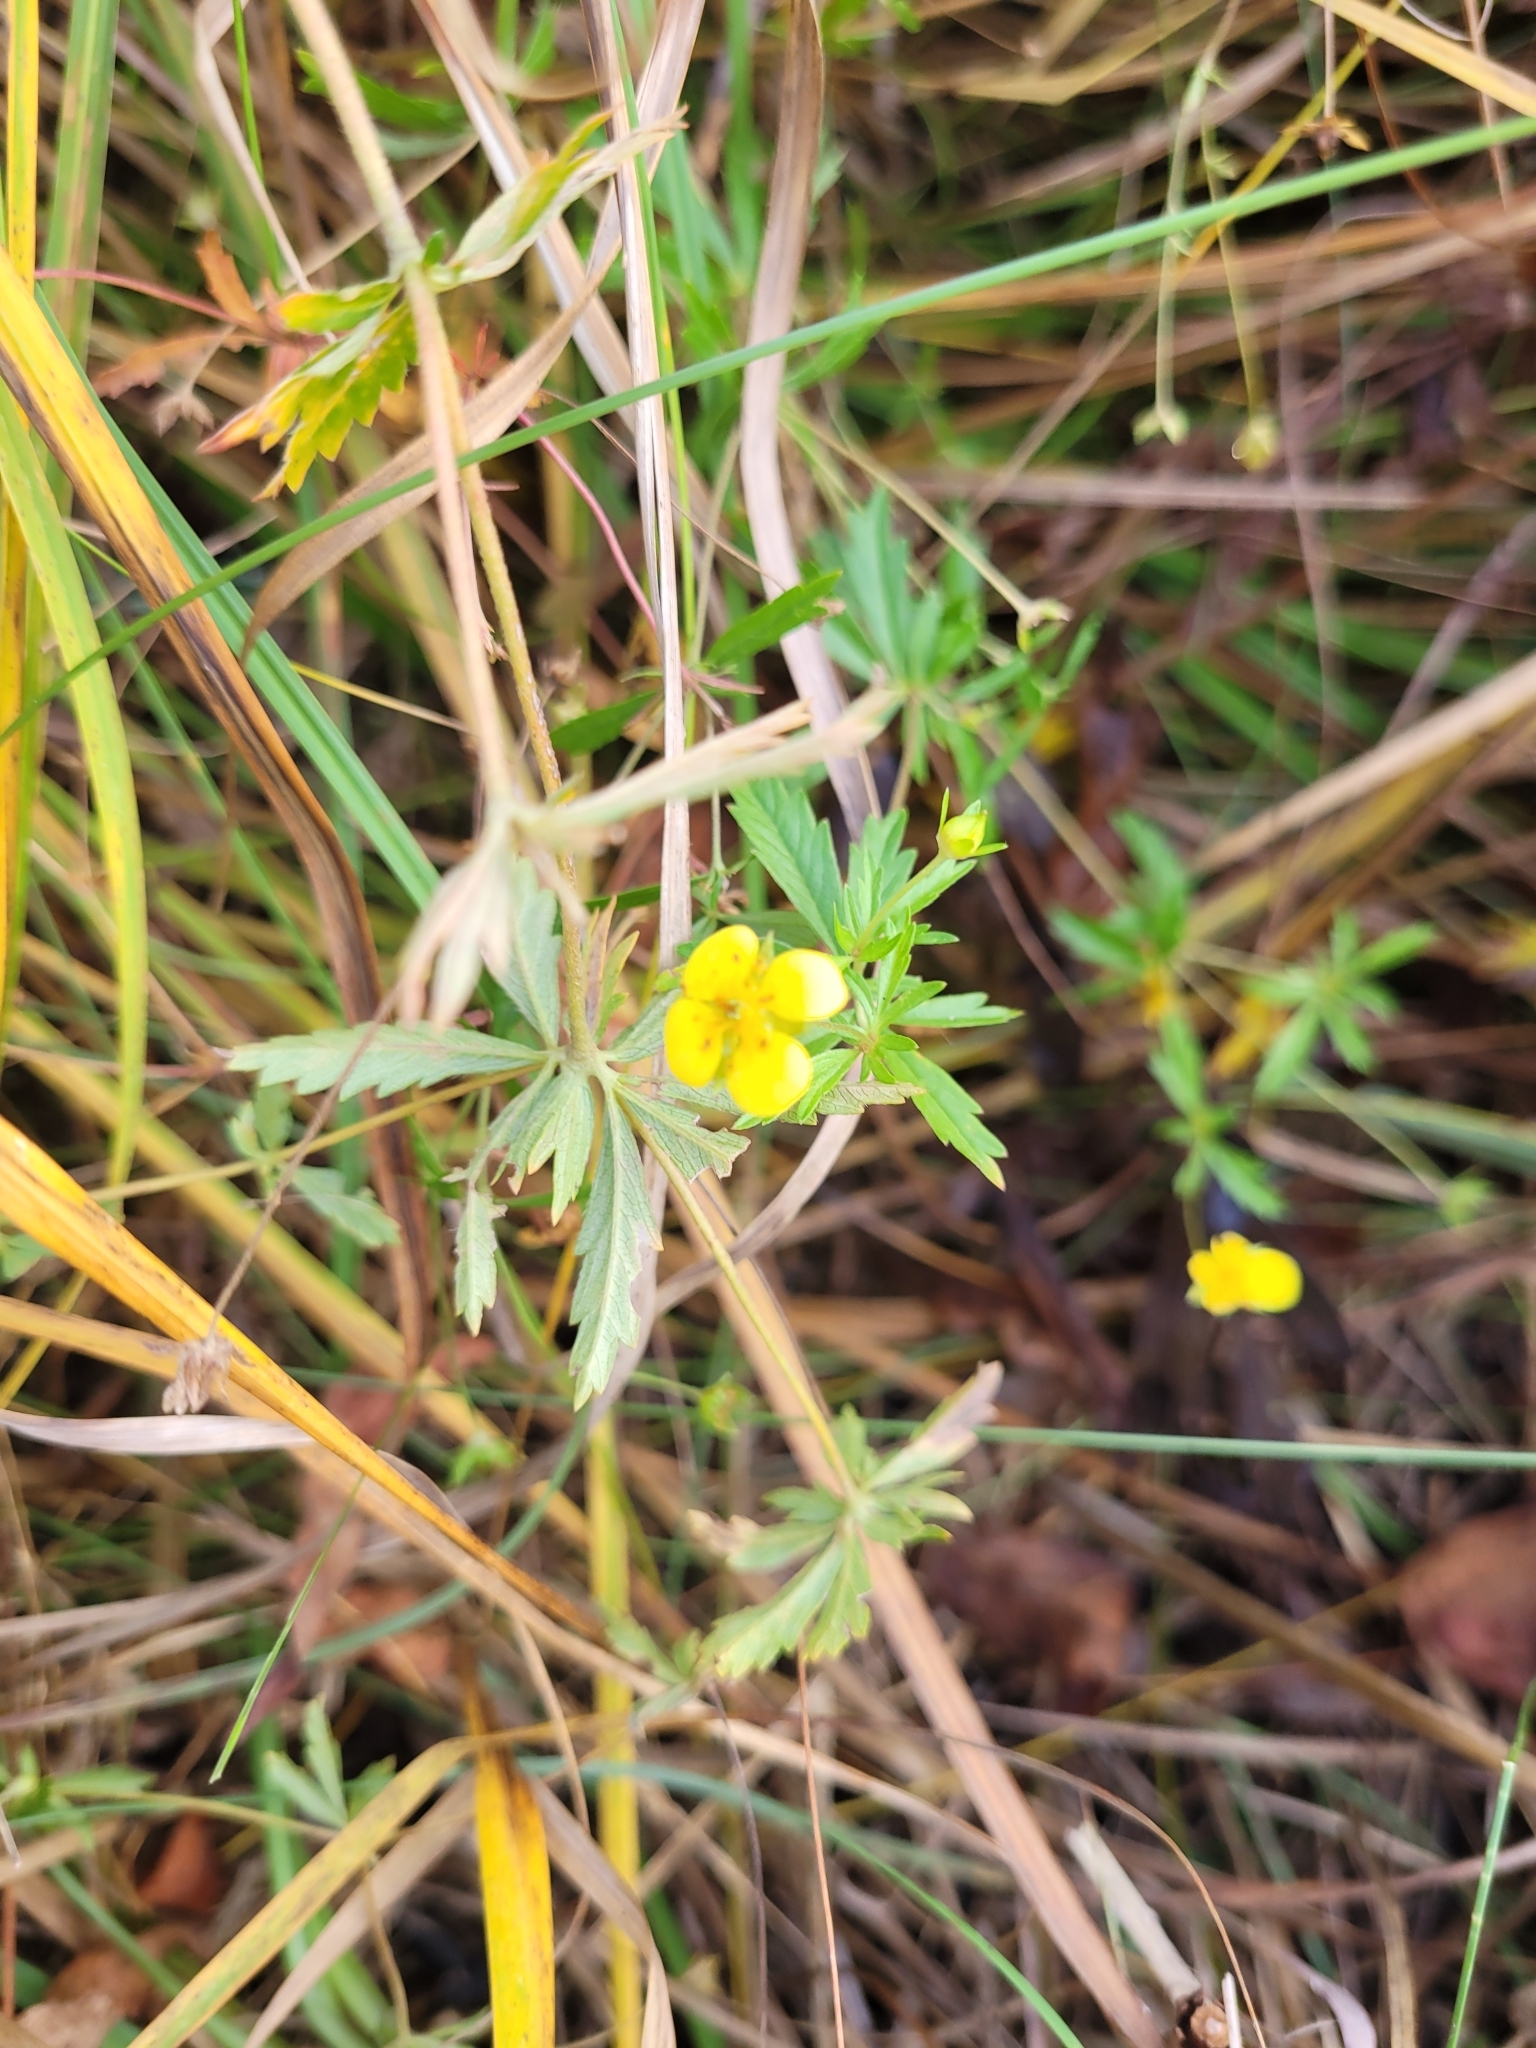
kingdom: Plantae
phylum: Tracheophyta
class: Magnoliopsida
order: Rosales
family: Rosaceae
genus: Potentilla
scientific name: Potentilla erecta
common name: Tormentil
